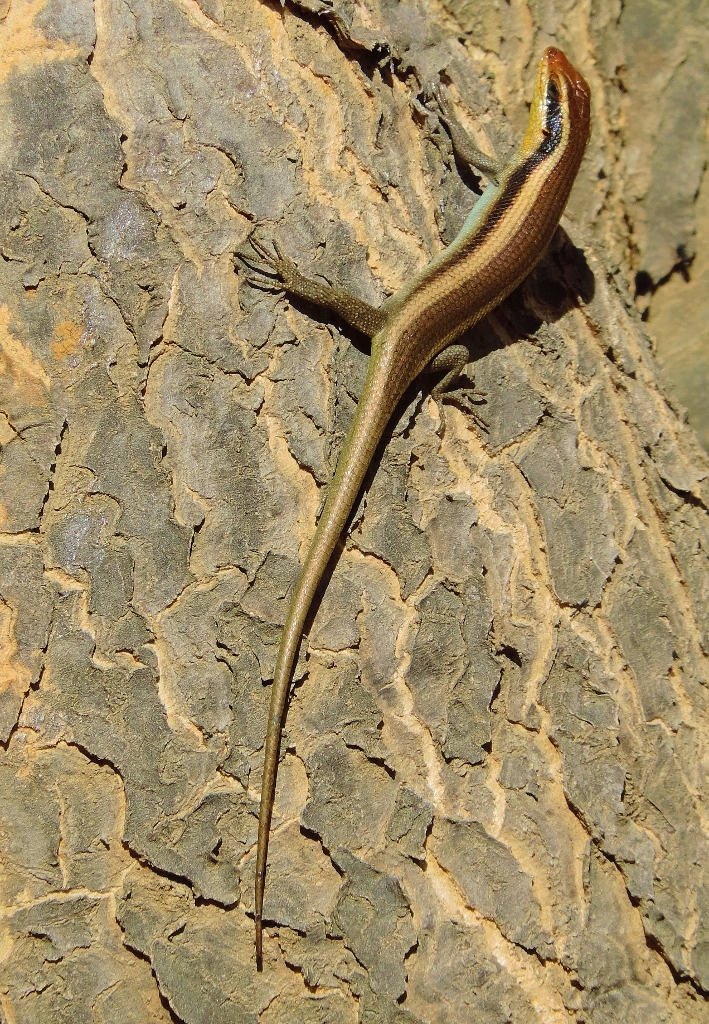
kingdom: Animalia
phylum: Chordata
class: Squamata
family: Scincidae
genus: Trachylepis
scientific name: Trachylepis wahlbergii
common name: Wahlberg’s striped skink
